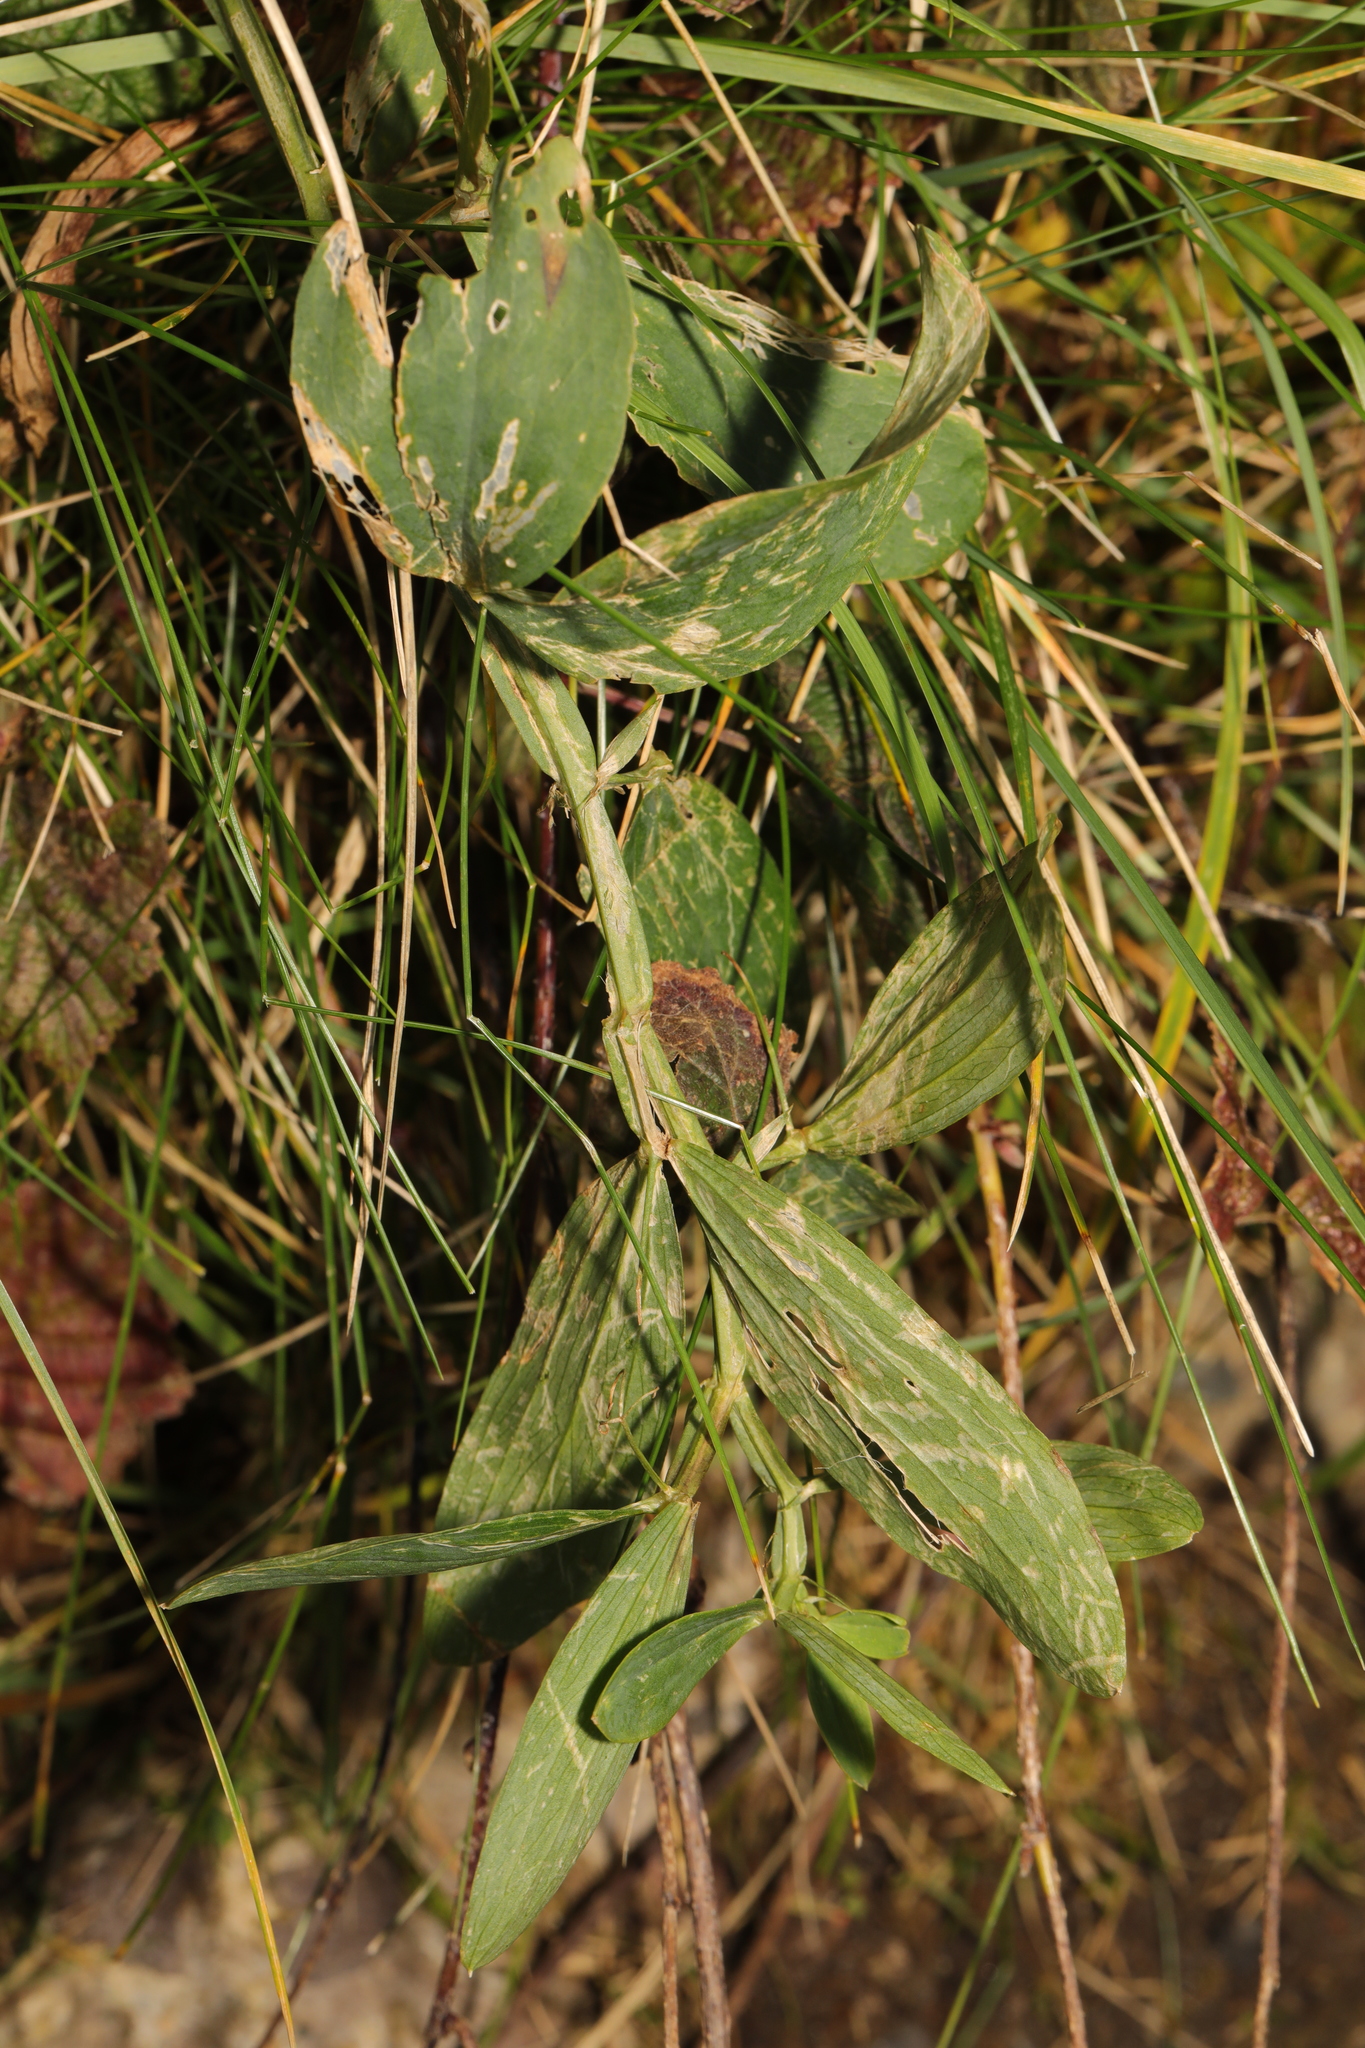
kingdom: Plantae
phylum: Tracheophyta
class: Magnoliopsida
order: Fabales
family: Fabaceae
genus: Lathyrus
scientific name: Lathyrus latifolius
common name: Perennial pea
